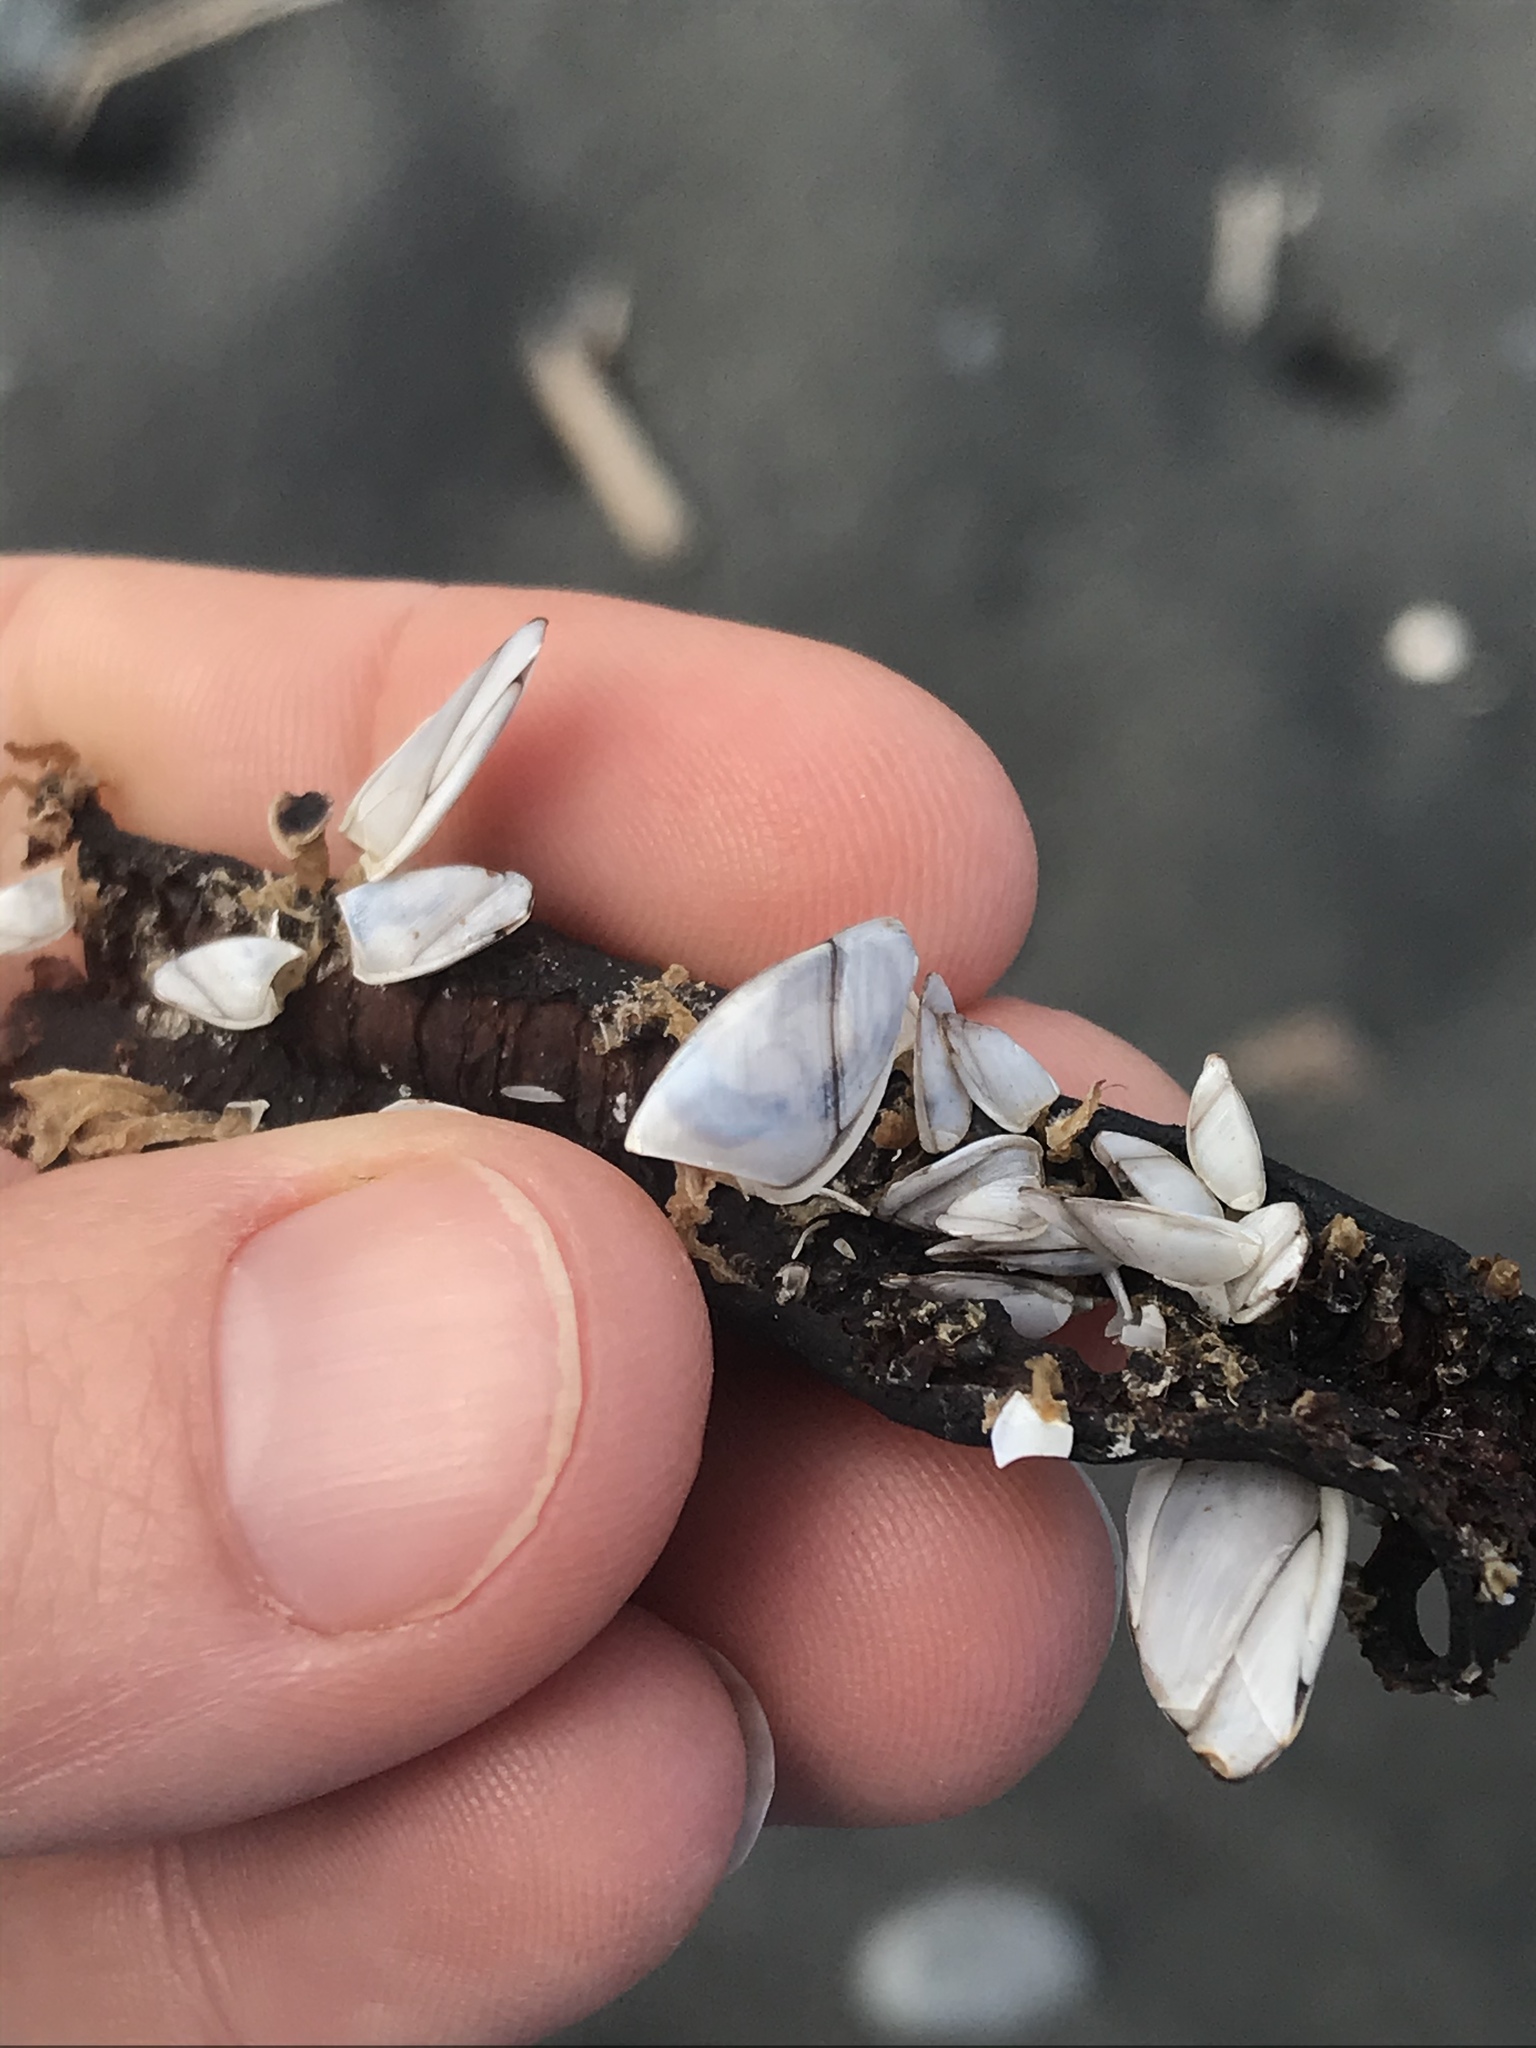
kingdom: Animalia
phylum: Arthropoda
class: Maxillopoda
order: Pedunculata
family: Lepadidae
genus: Lepas
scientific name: Lepas anatifera
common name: Common goose barnacle
